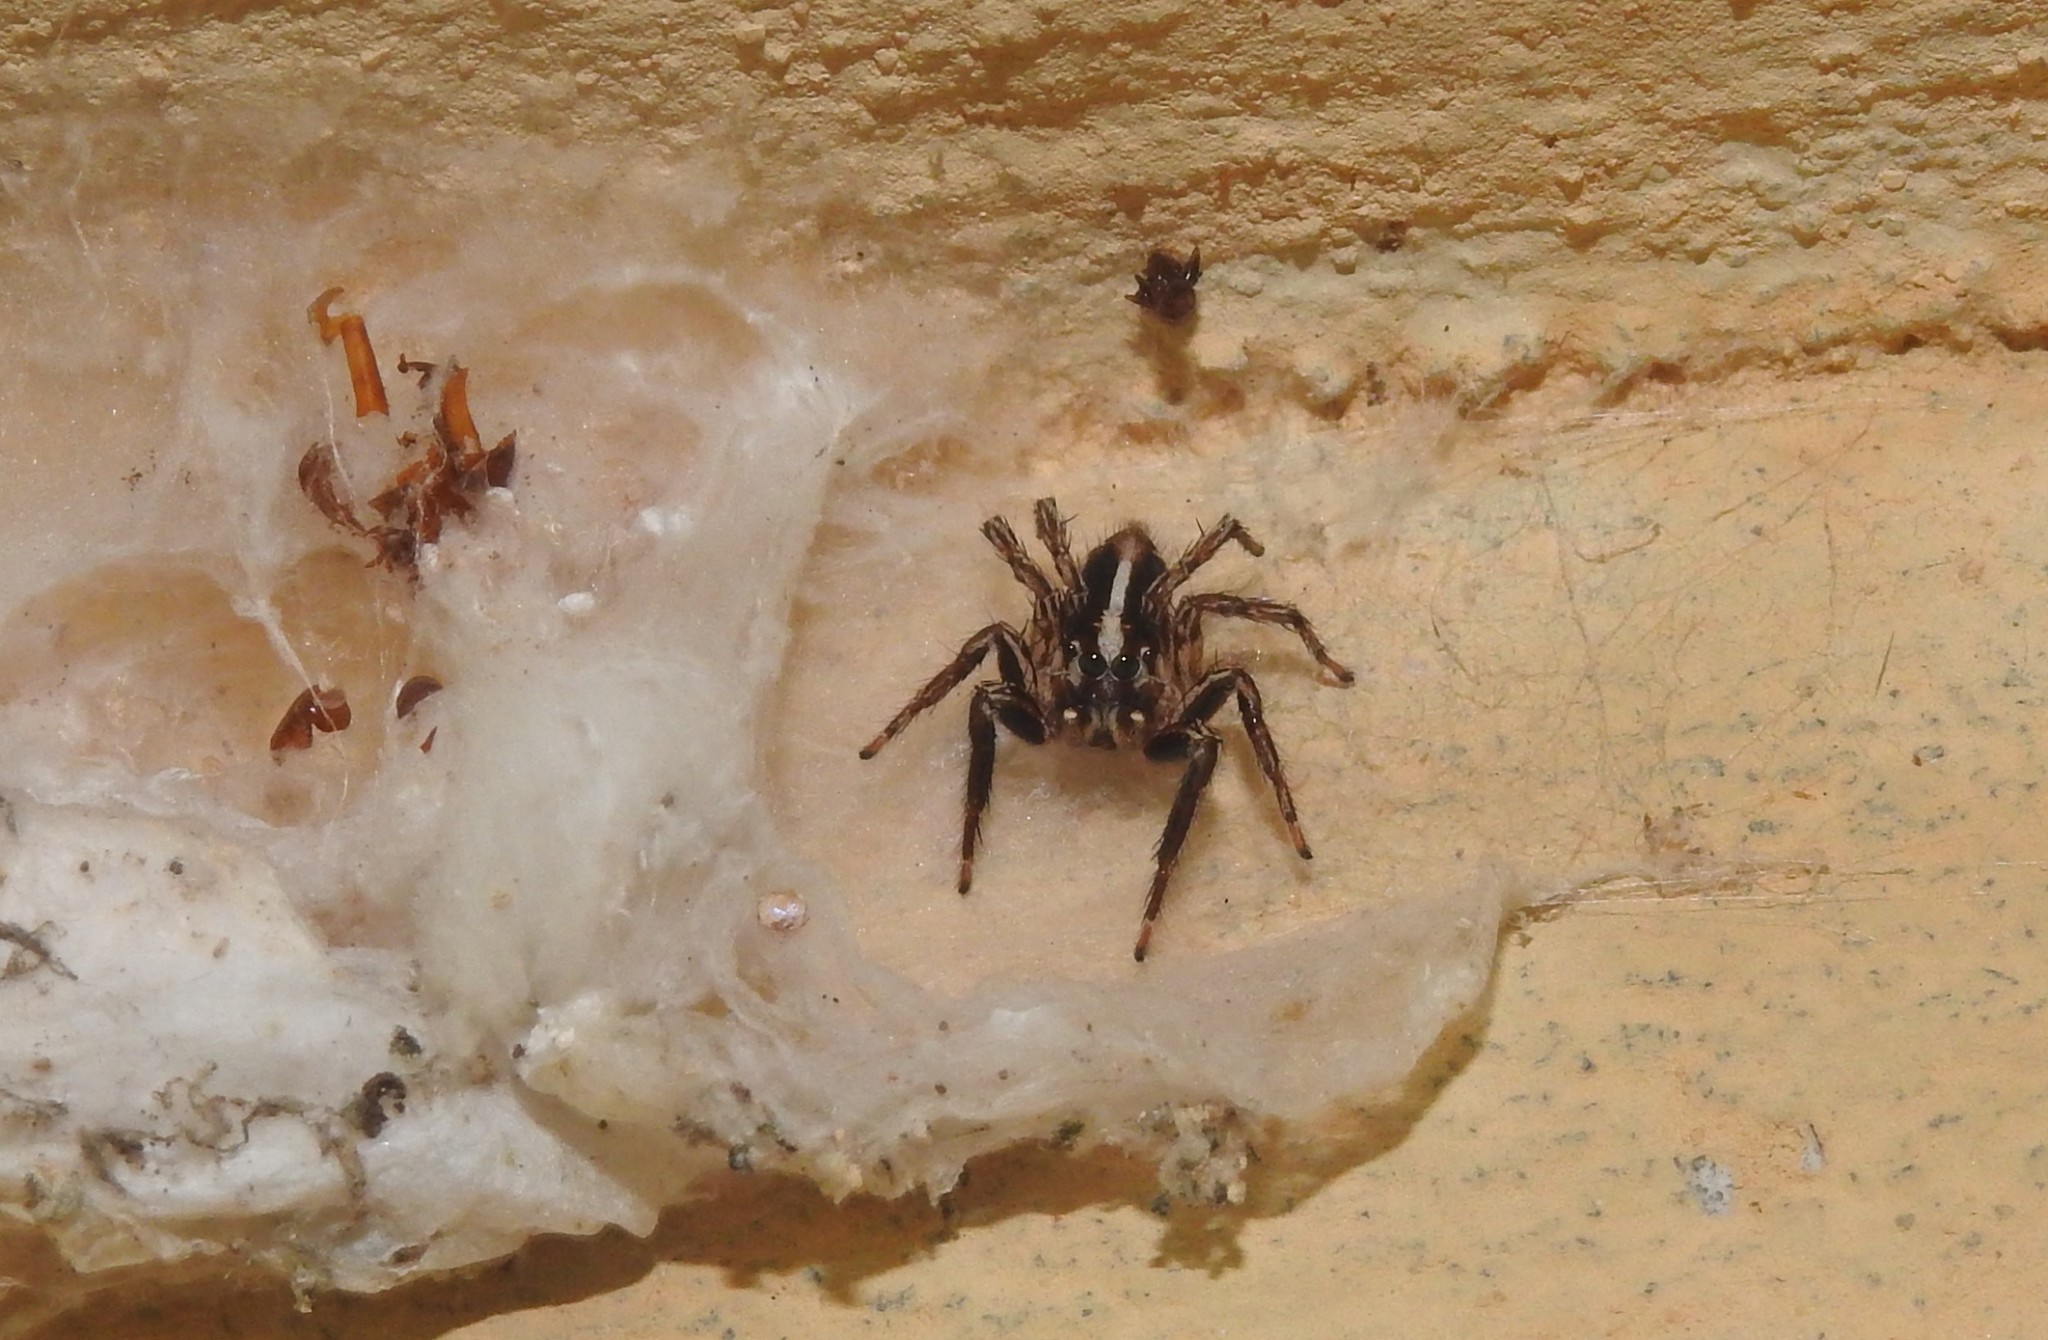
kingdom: Animalia
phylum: Arthropoda
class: Arachnida
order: Araneae
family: Salticidae
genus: Plexippus
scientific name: Plexippus paykulli
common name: Pantropical jumper
